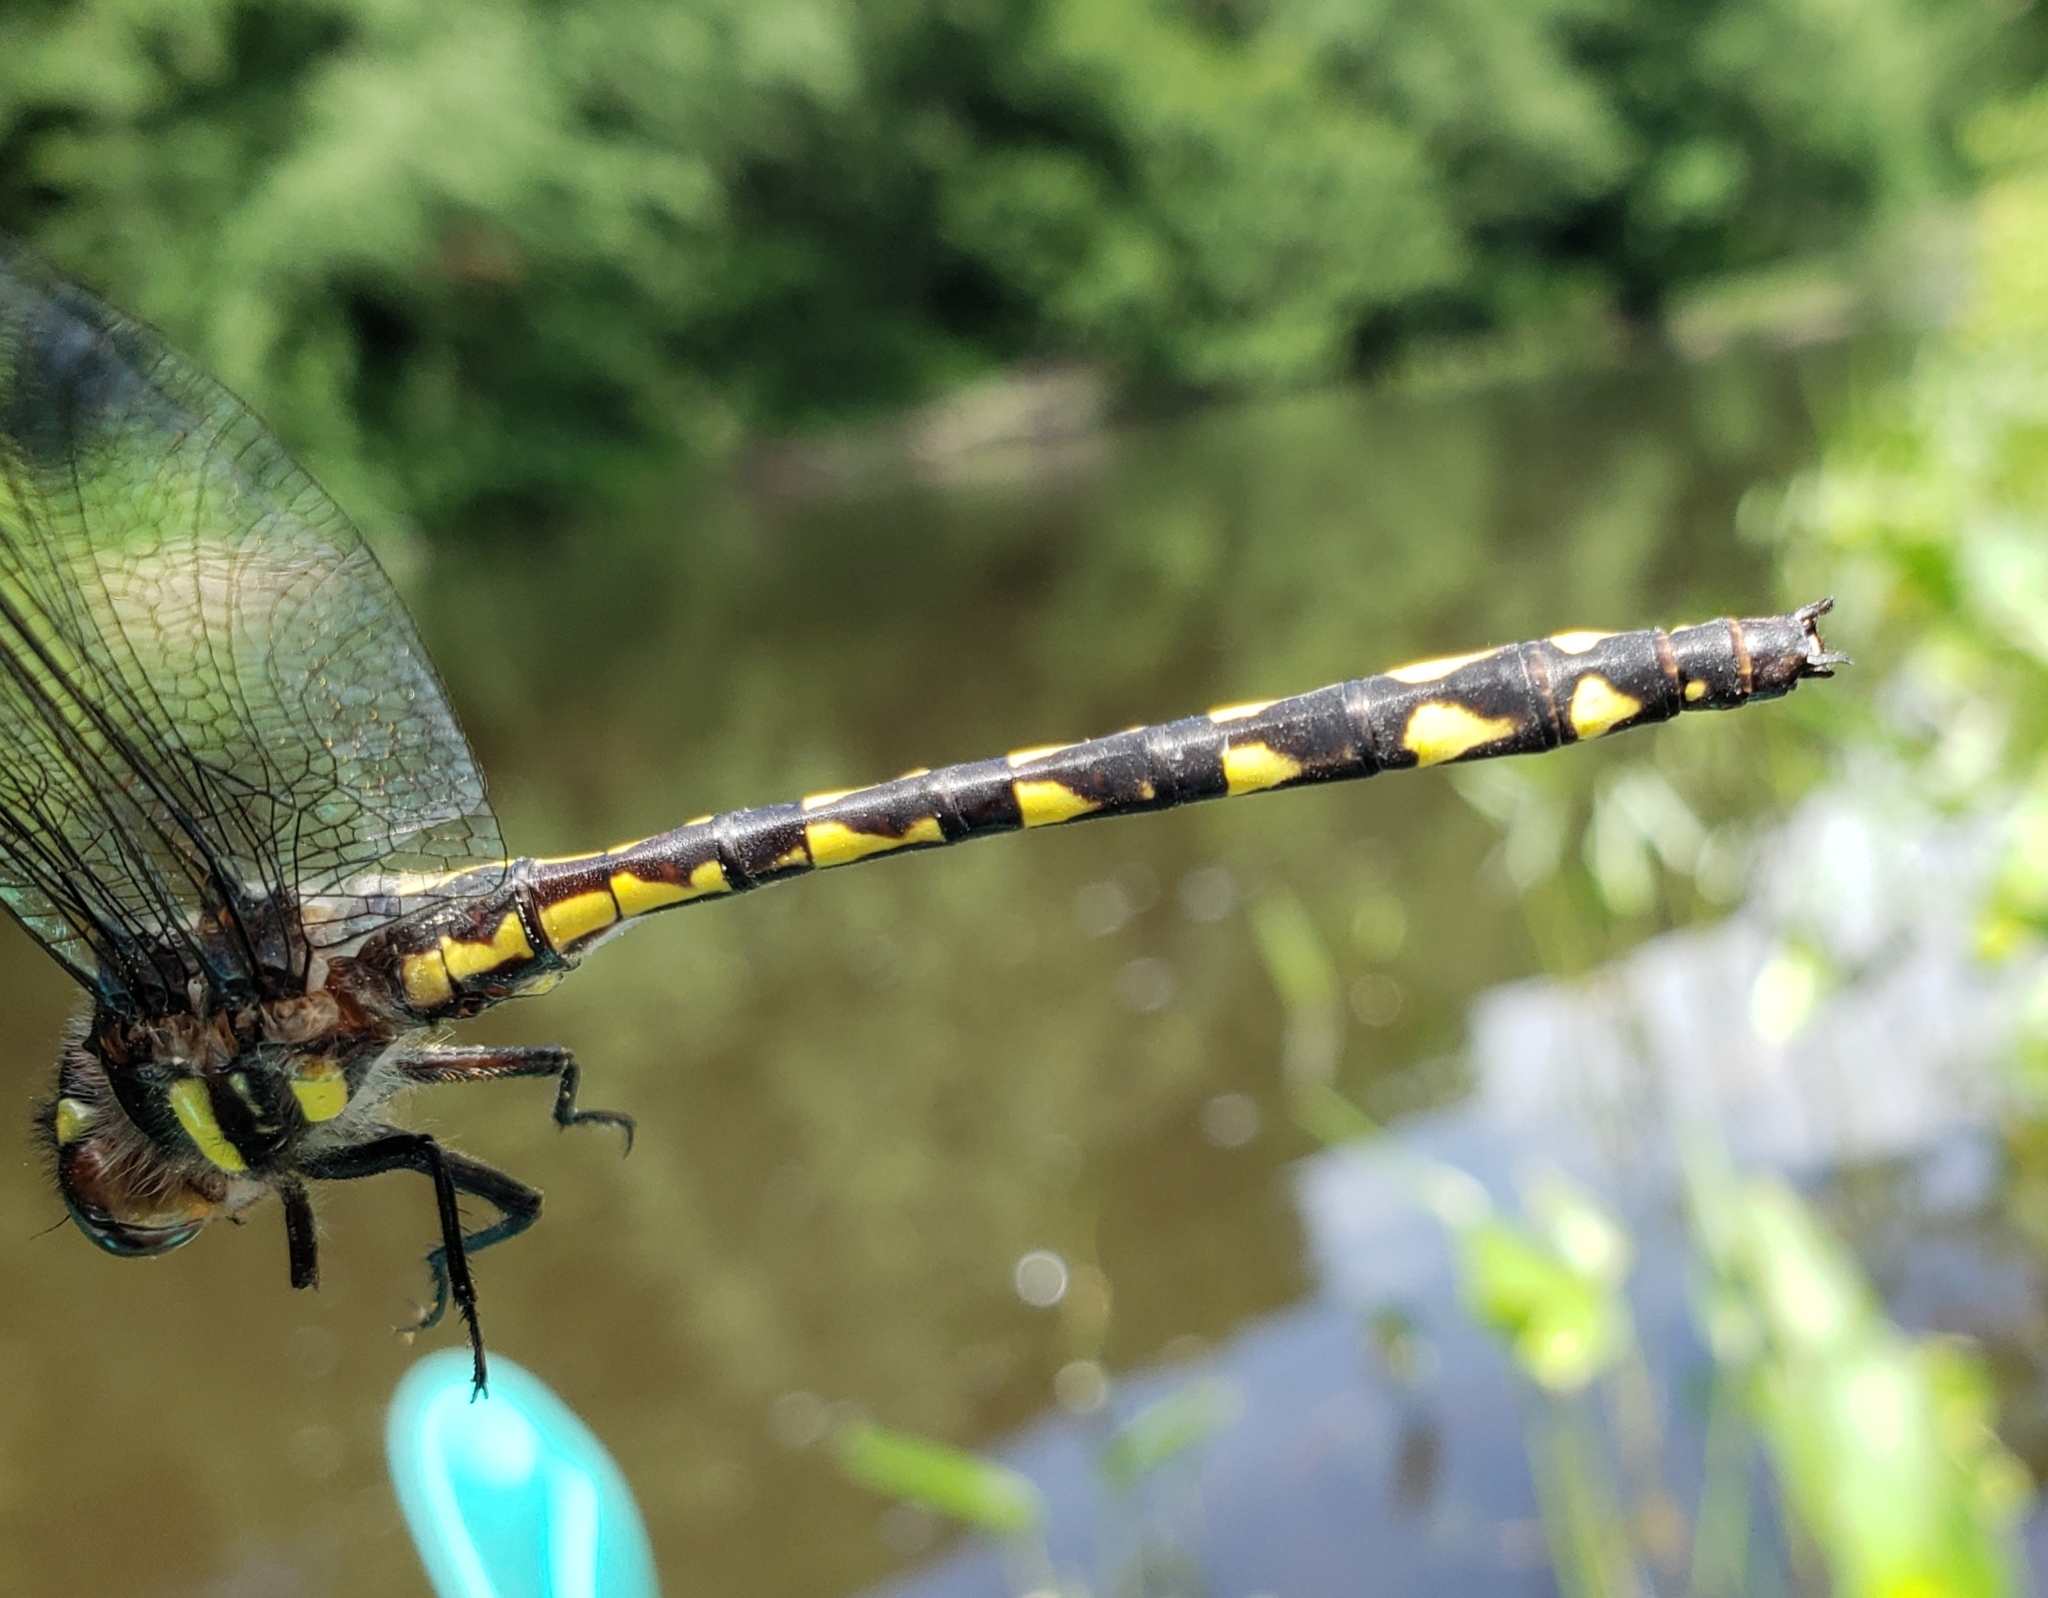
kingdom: Animalia
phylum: Arthropoda
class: Insecta
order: Odonata
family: Cordulegastridae
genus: Cordulegaster
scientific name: Cordulegaster diastatops
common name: Delta-spotted spiketail
